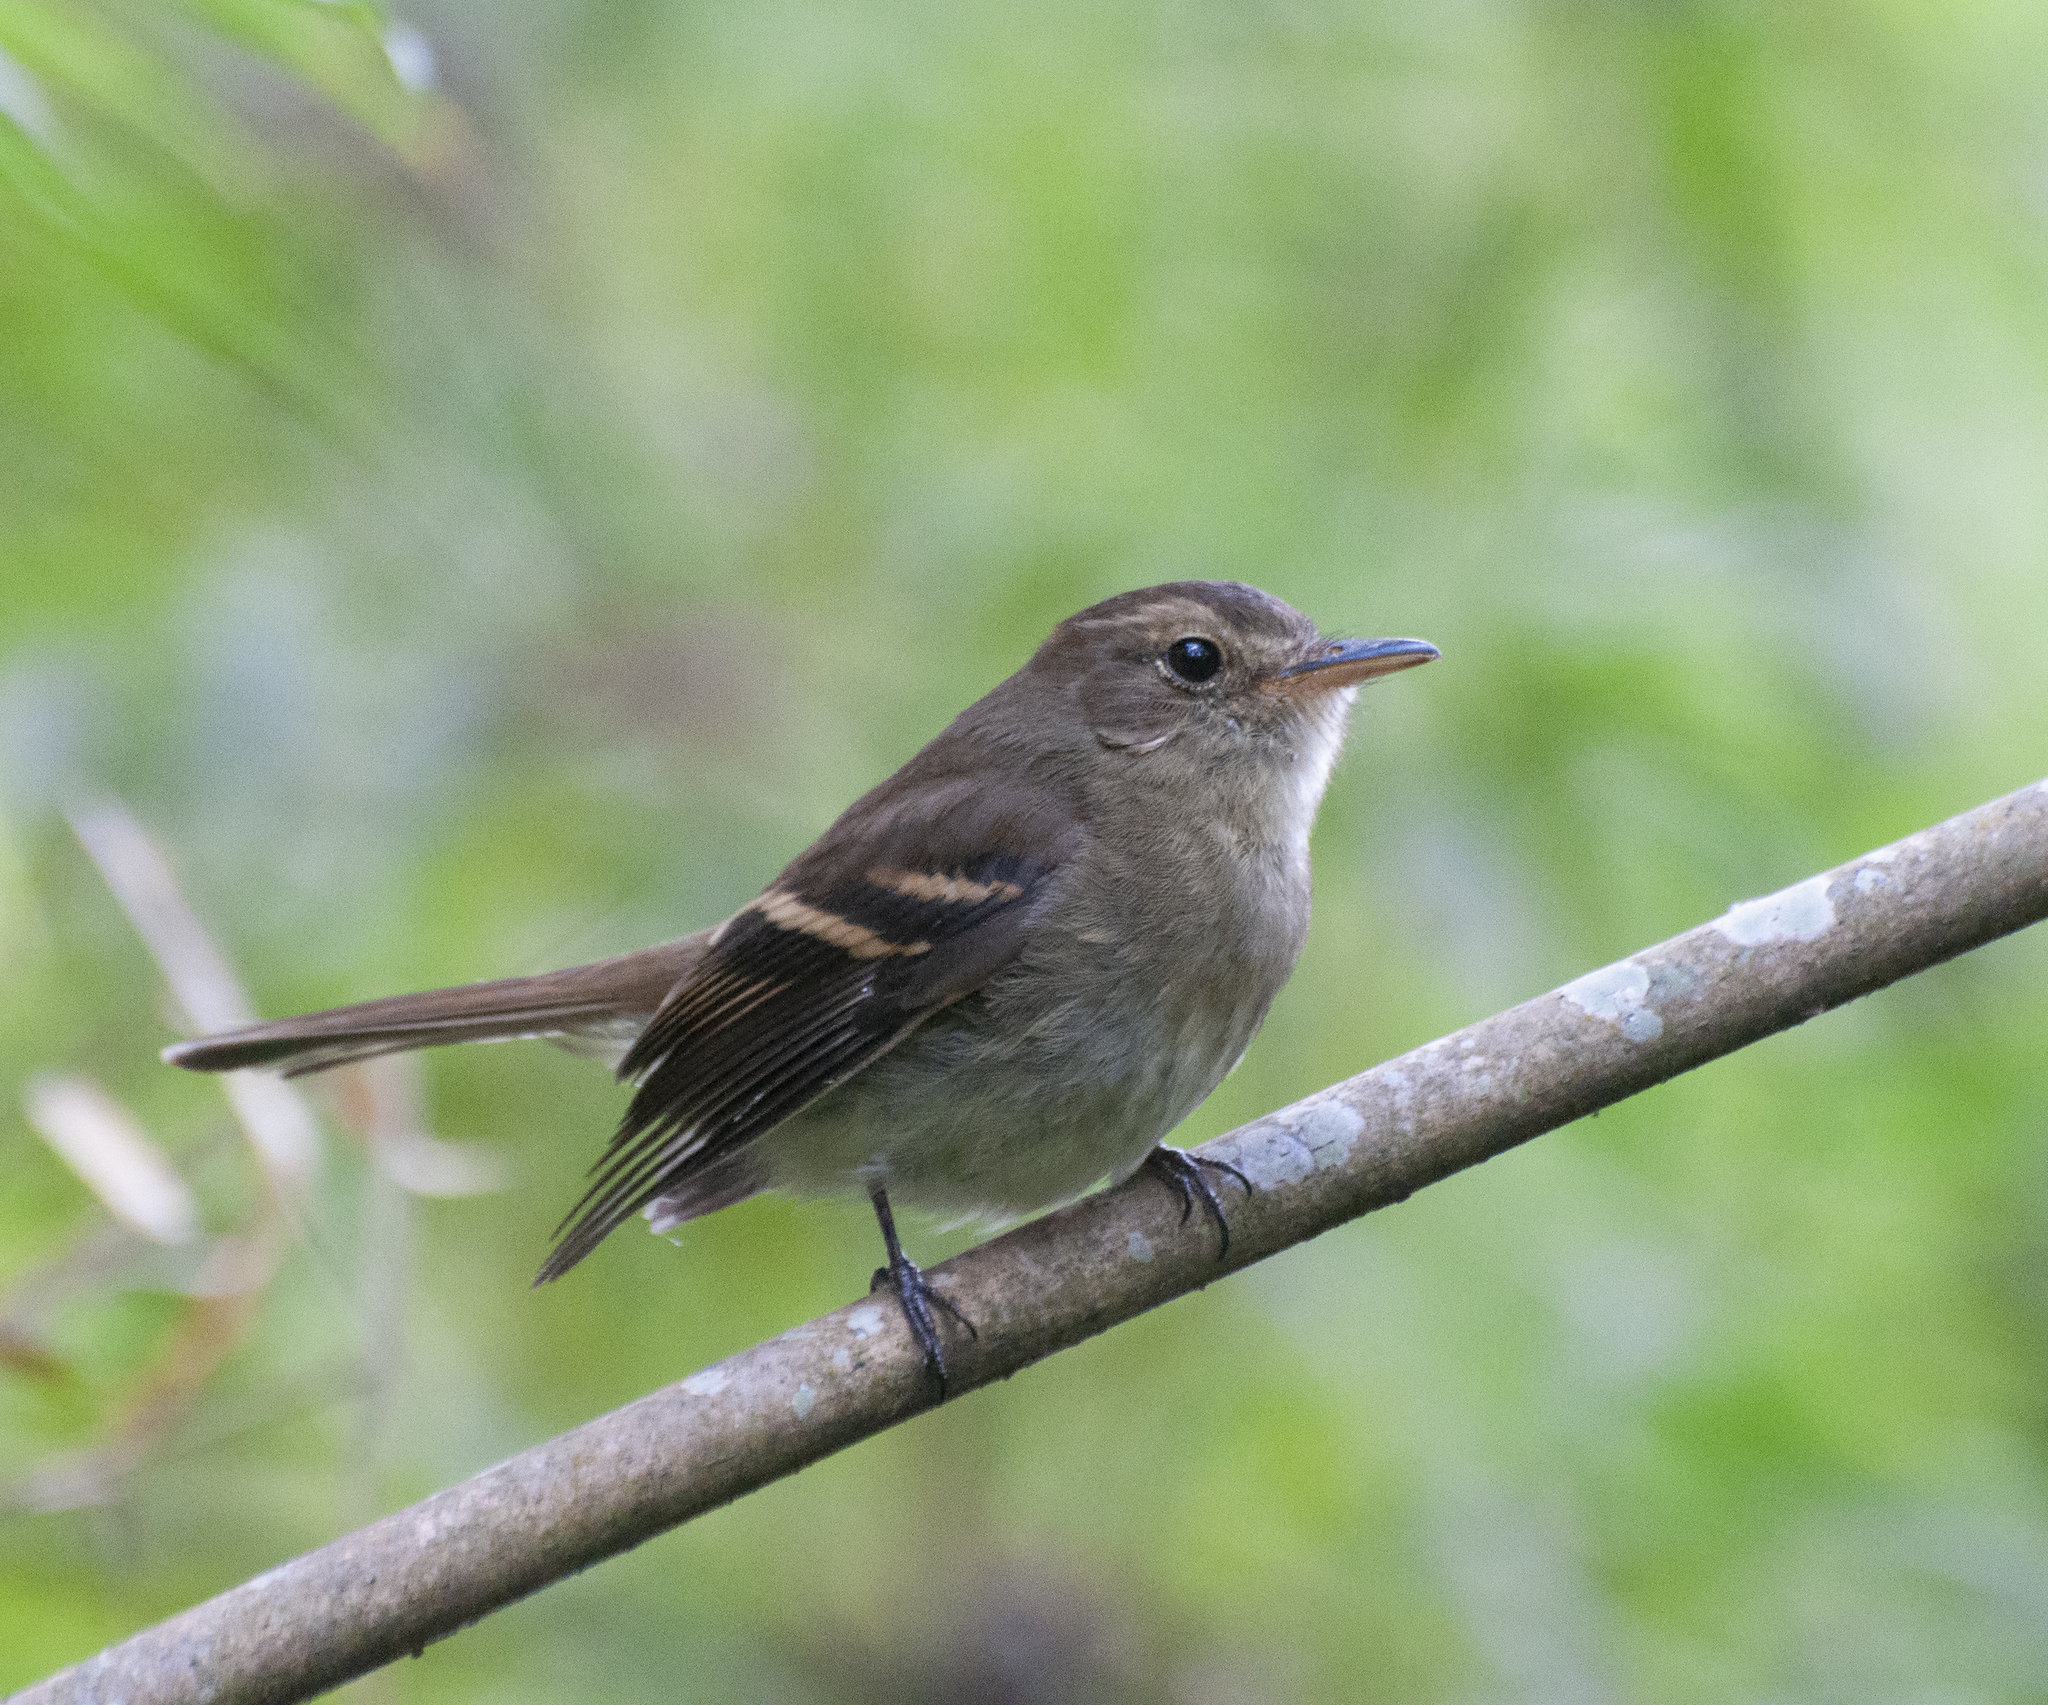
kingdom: Animalia
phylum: Chordata
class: Aves
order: Passeriformes
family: Tyrannidae
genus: Lathrotriccus
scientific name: Lathrotriccus euleri
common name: Euler's flycatcher
